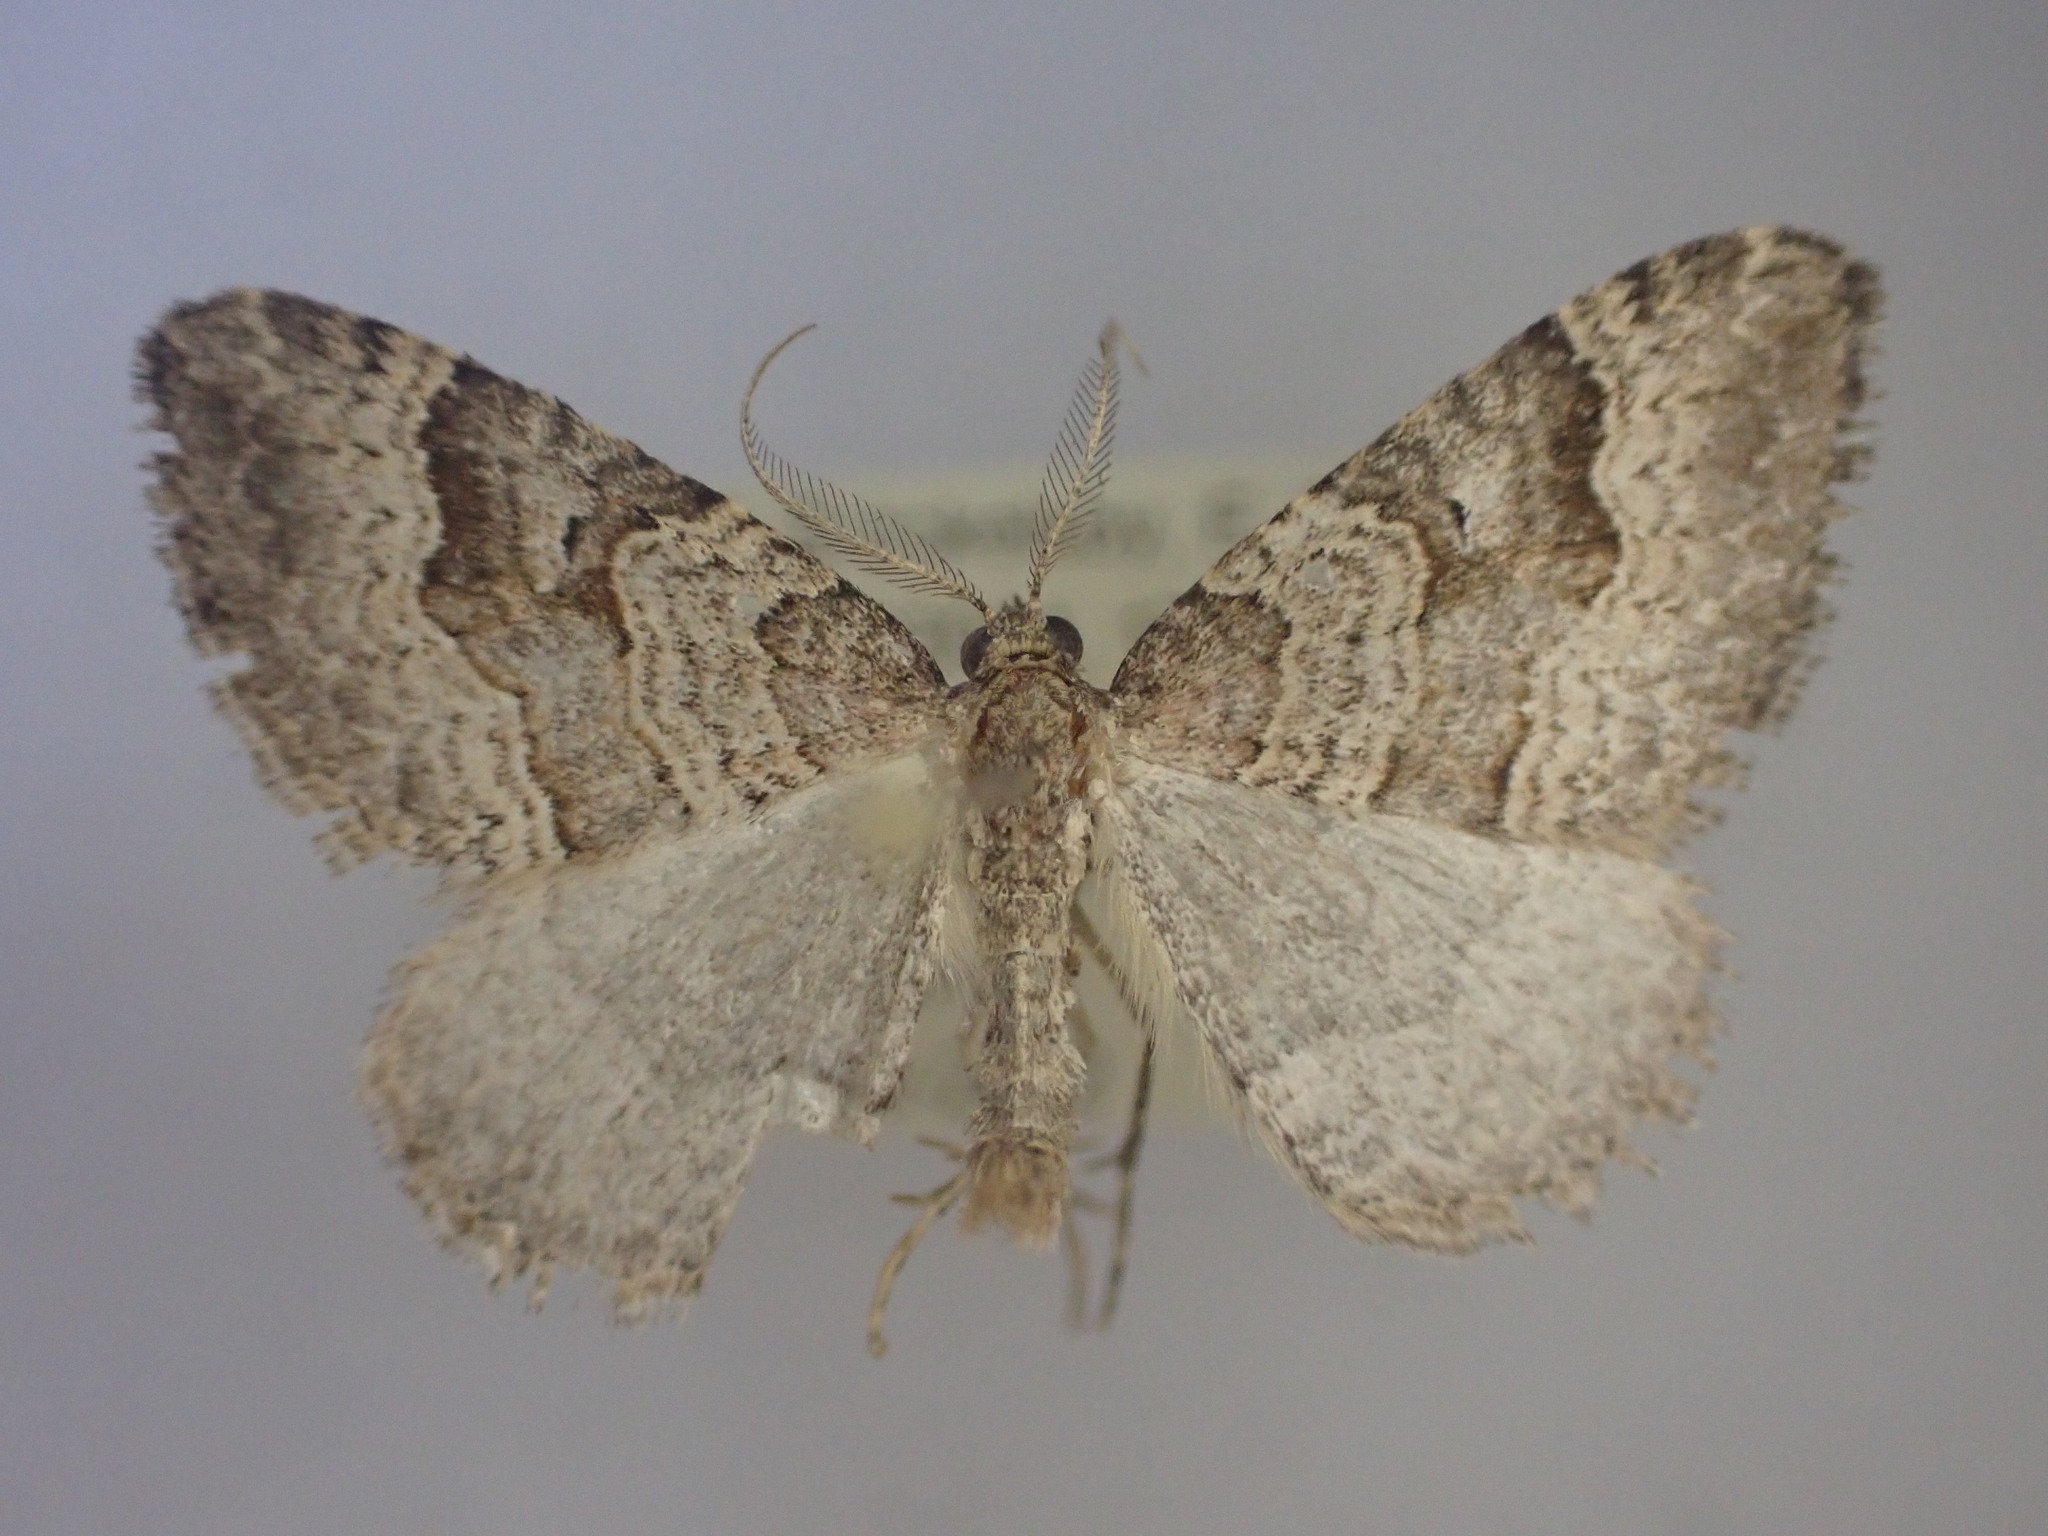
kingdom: Animalia
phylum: Arthropoda
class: Insecta
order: Lepidoptera
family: Geometridae
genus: Epyaxa
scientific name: Epyaxa rosearia
